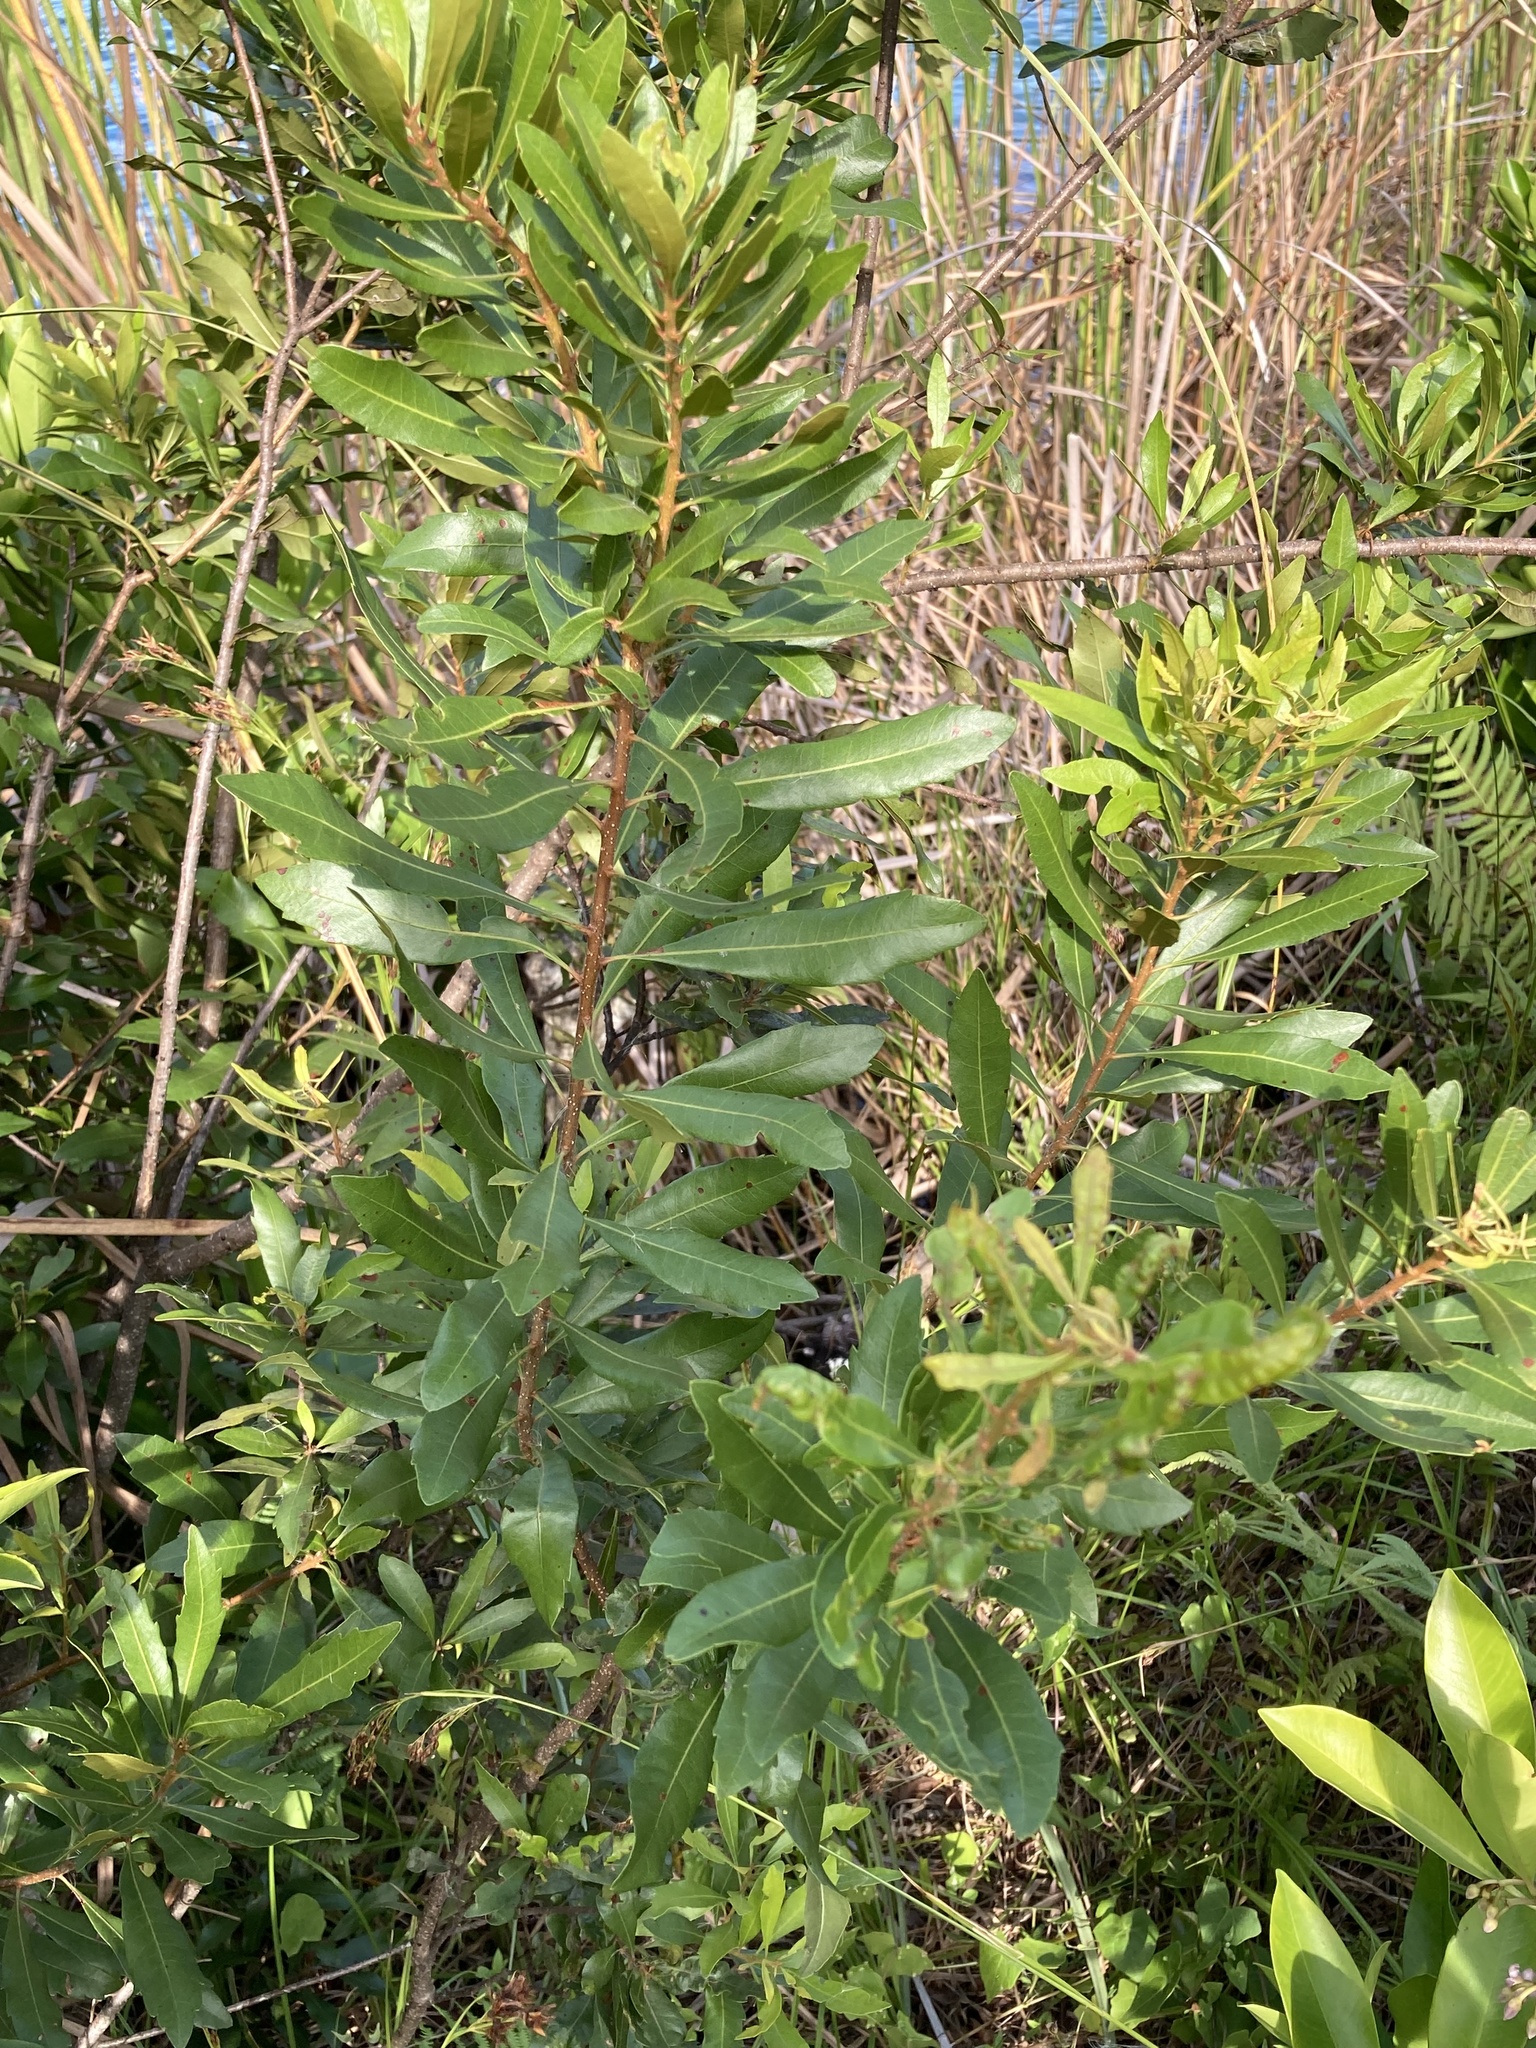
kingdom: Plantae
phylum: Tracheophyta
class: Magnoliopsida
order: Fagales
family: Myricaceae
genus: Morella
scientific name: Morella cerifera
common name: Wax myrtle
